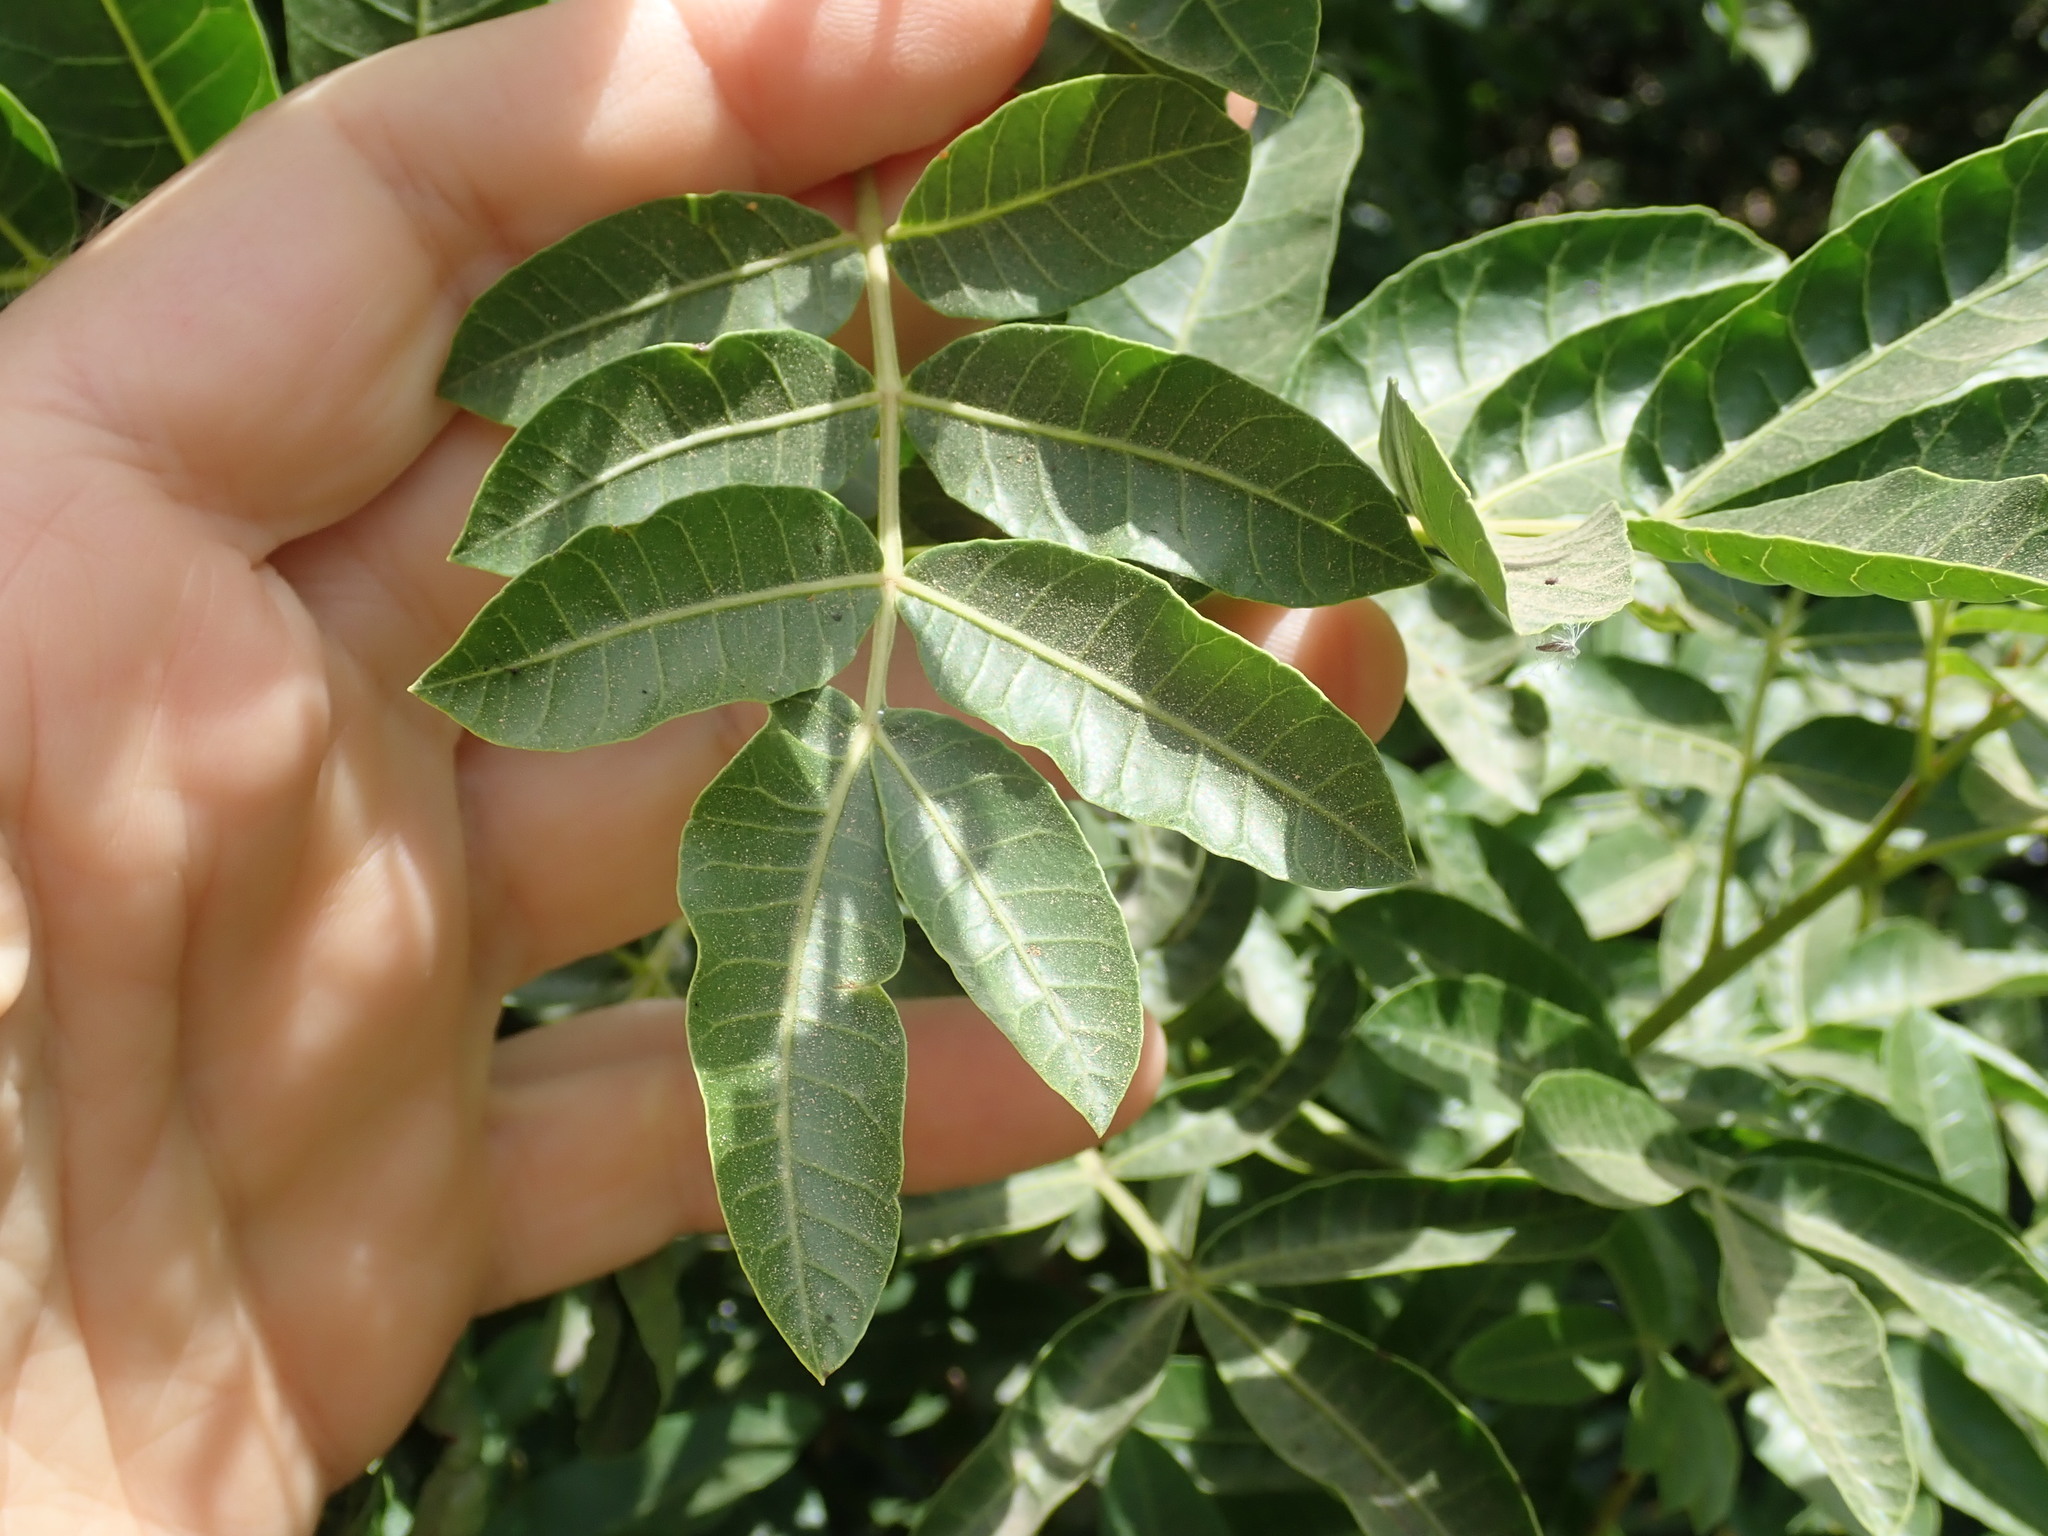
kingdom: Plantae
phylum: Tracheophyta
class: Magnoliopsida
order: Sapindales
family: Anacardiaceae
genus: Schinus
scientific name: Schinus terebinthifolia
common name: Brazilian peppertree
